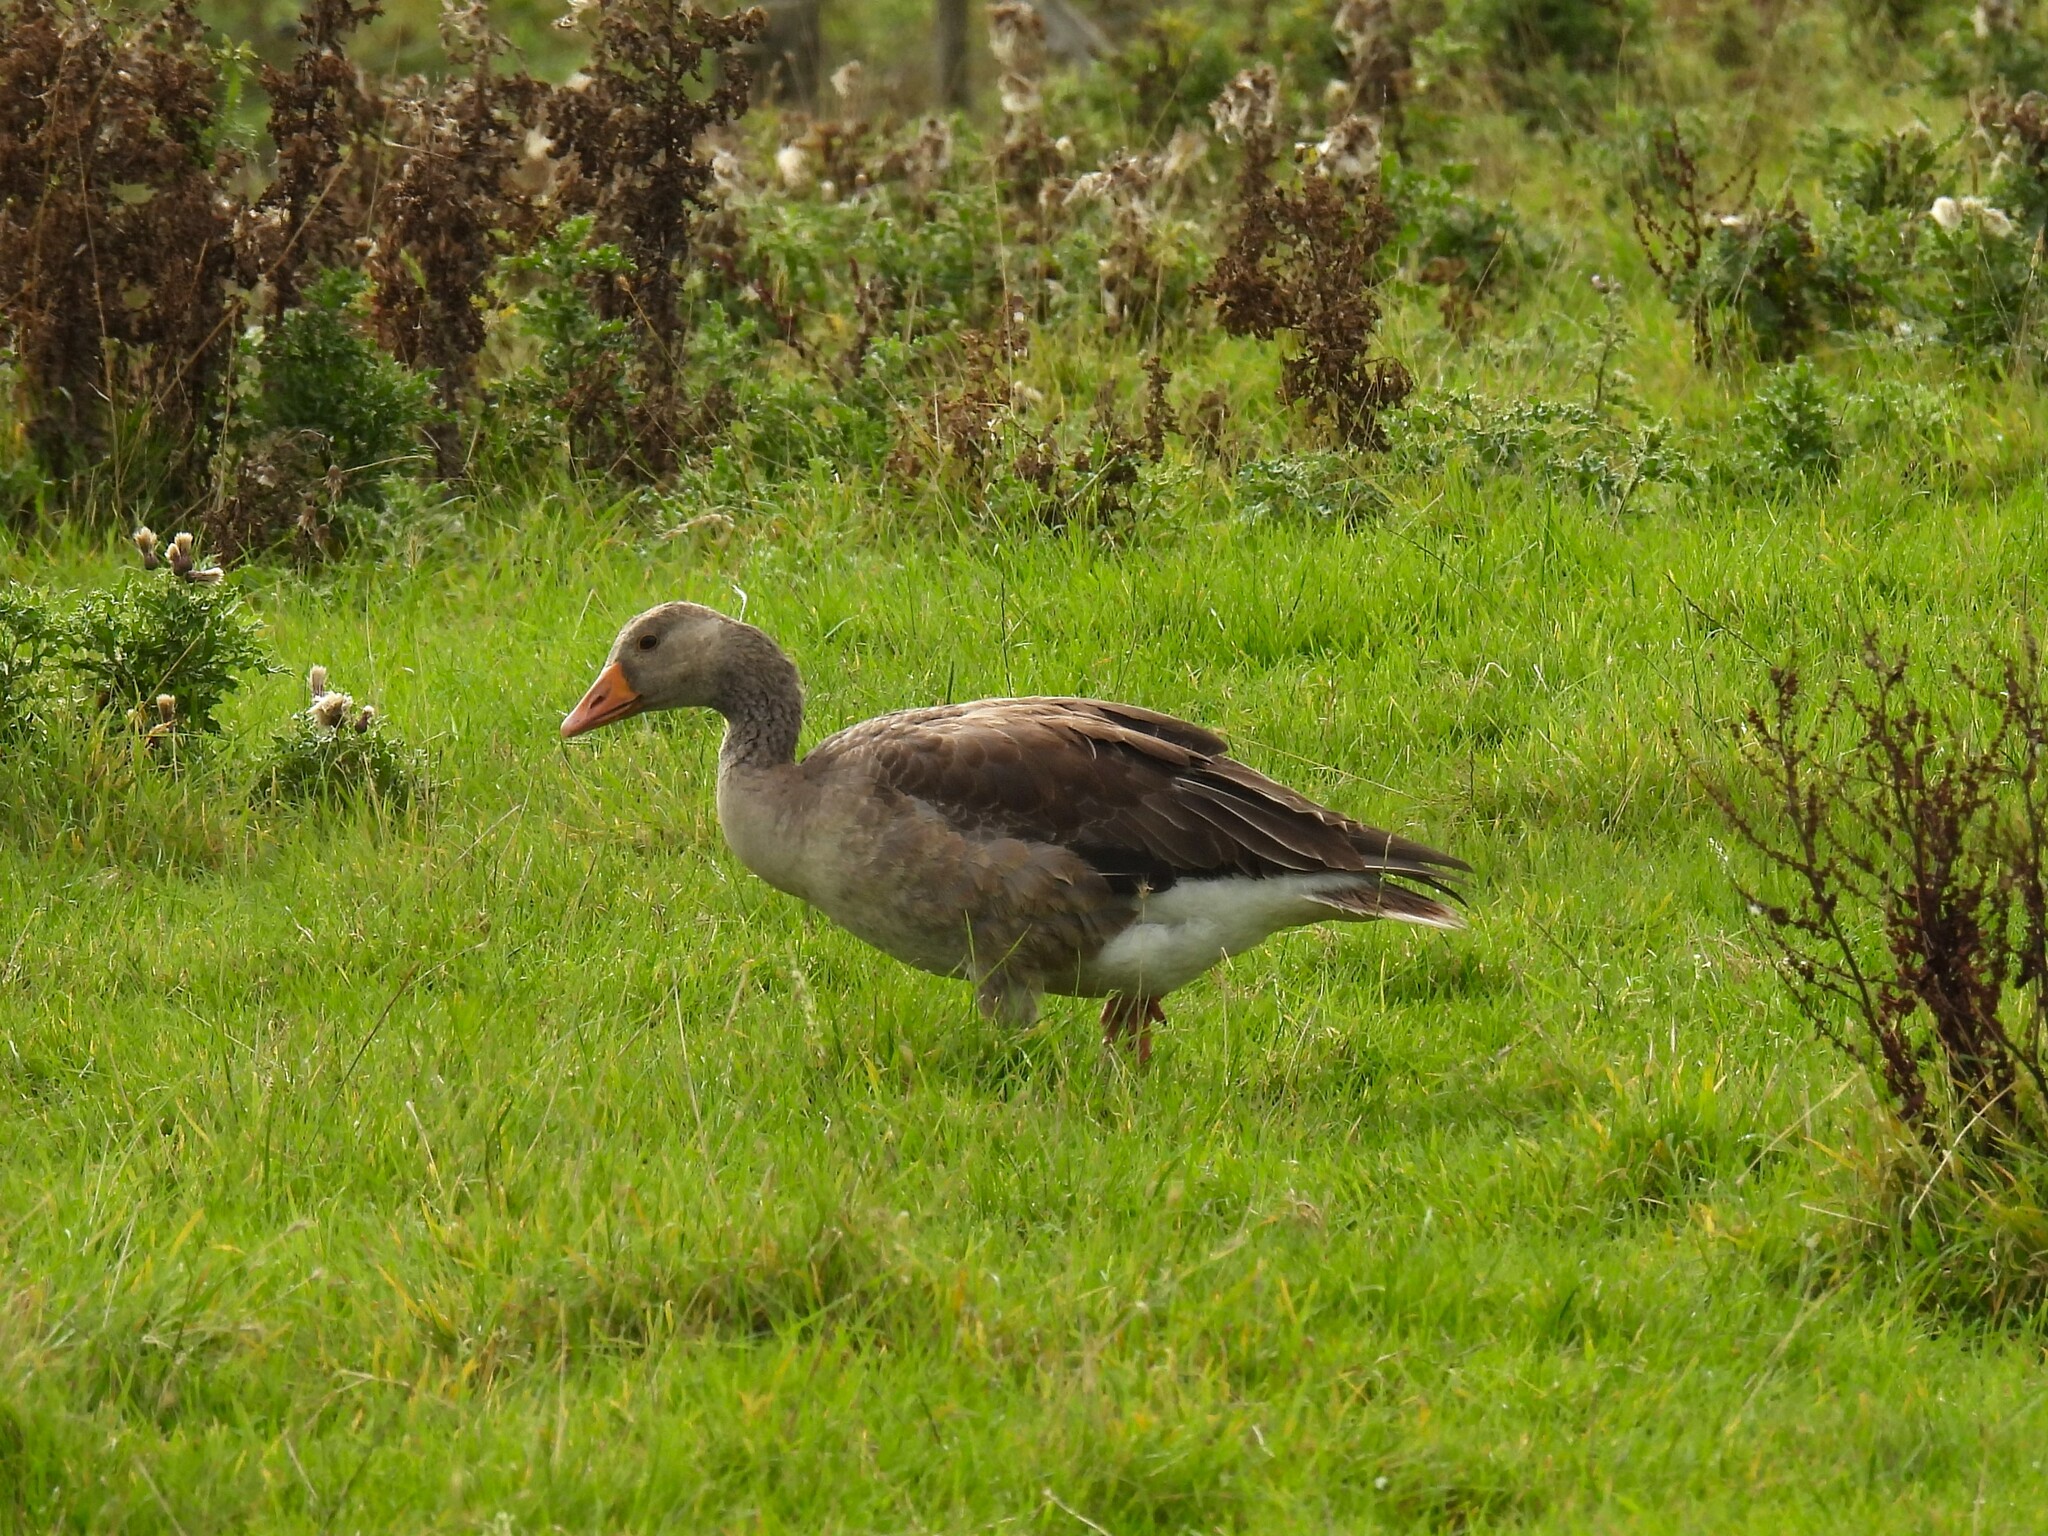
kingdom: Animalia
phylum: Chordata
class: Aves
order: Anseriformes
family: Anatidae
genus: Anser
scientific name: Anser anser
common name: Greylag goose
